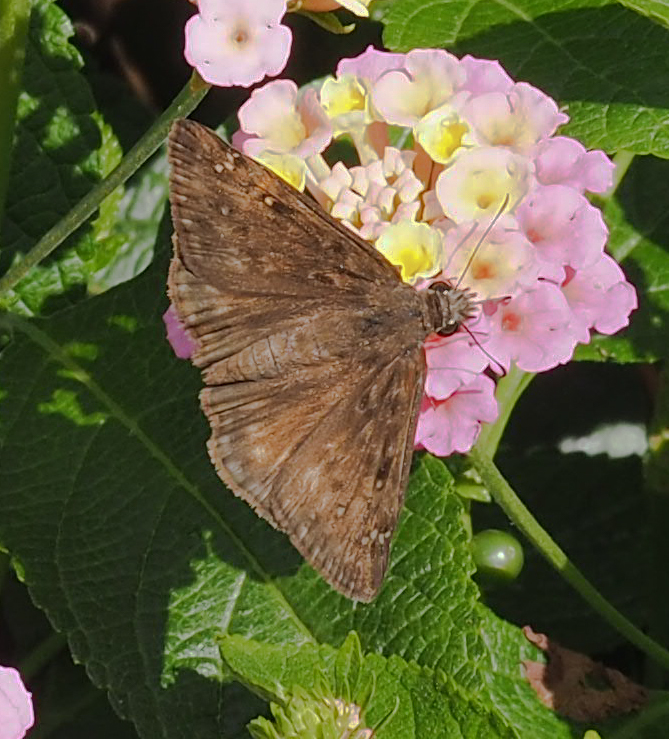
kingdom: Animalia
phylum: Arthropoda
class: Insecta
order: Lepidoptera
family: Hesperiidae
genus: Erynnis
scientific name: Erynnis horatius
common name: Horace's duskywing
